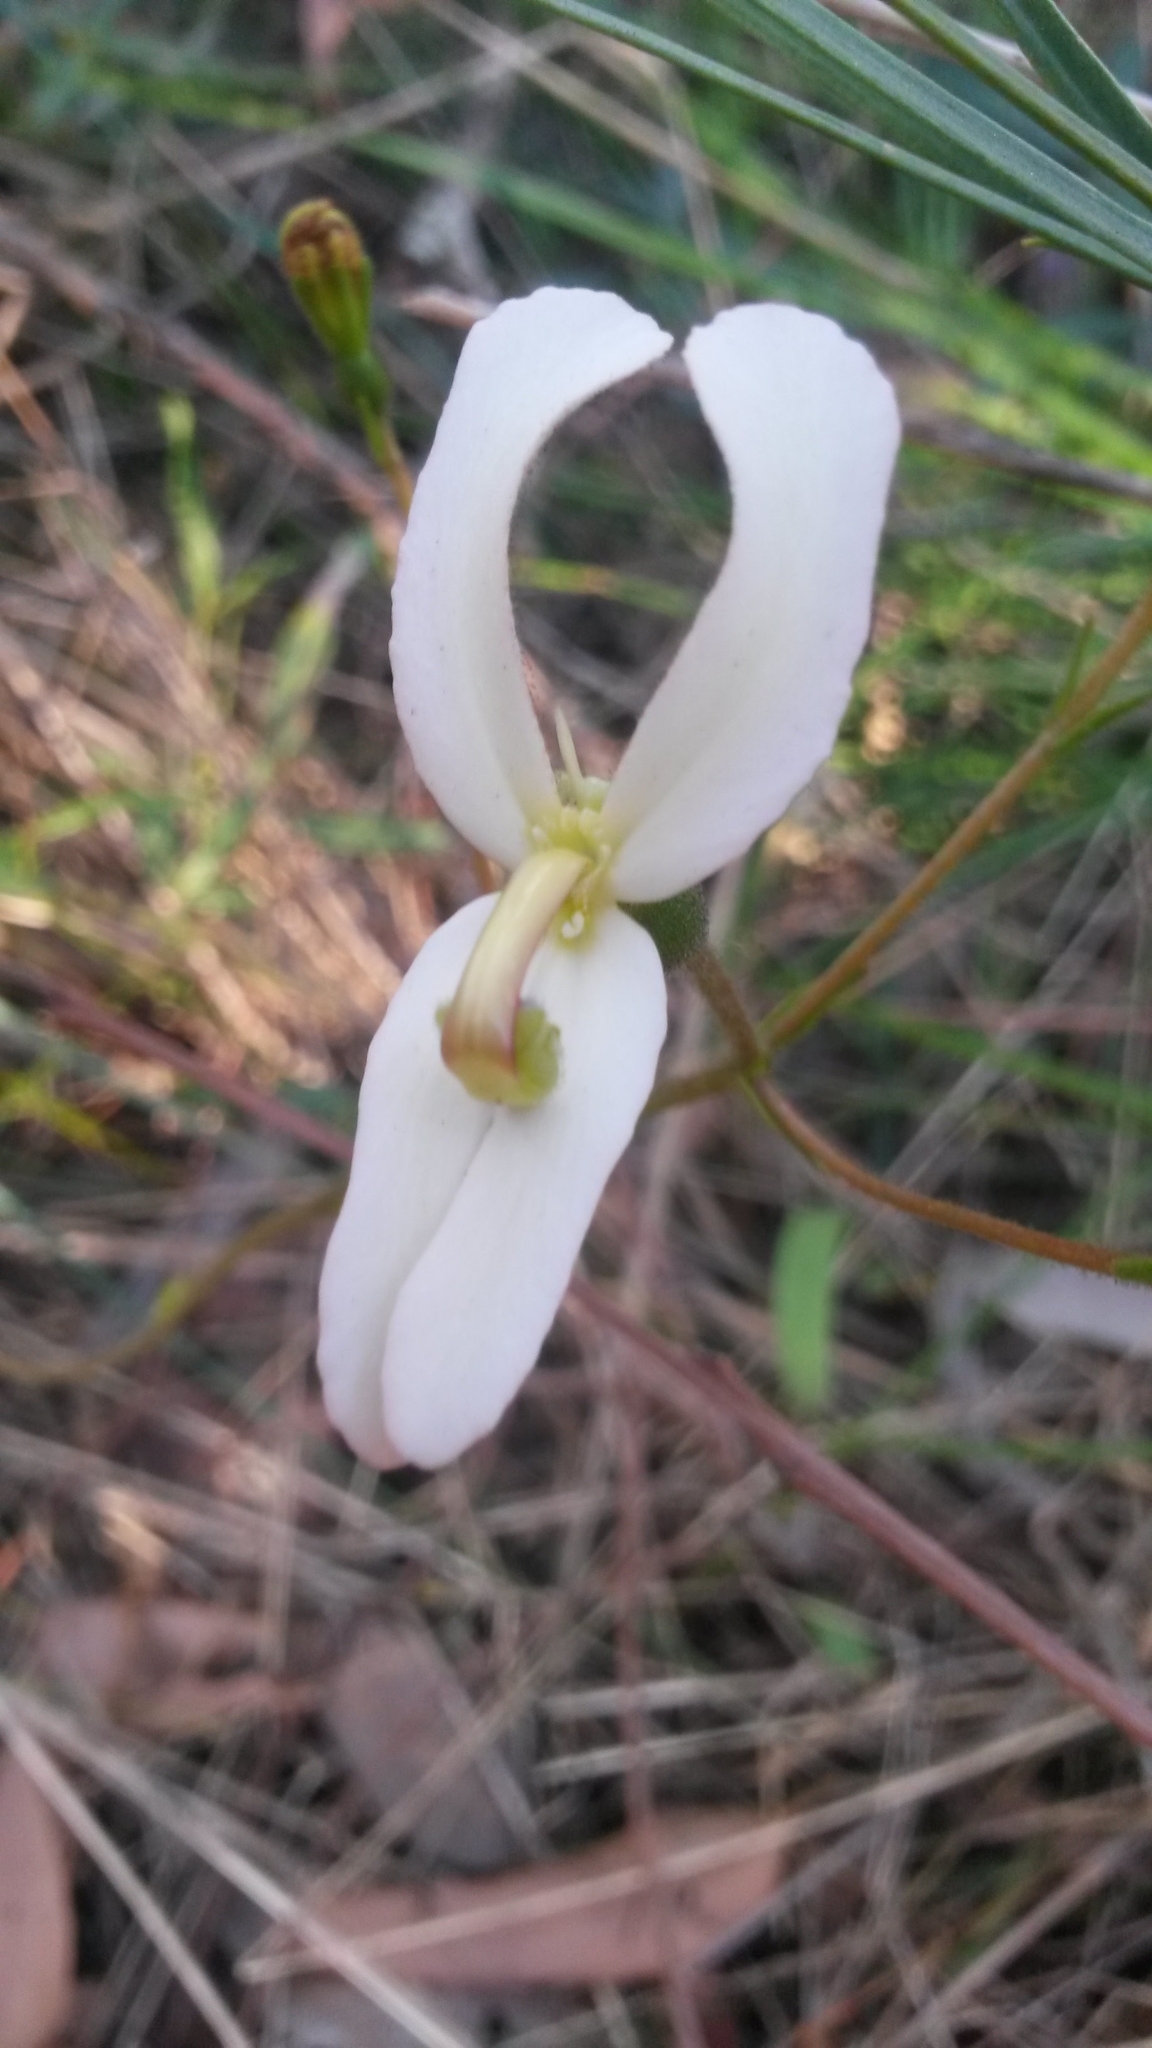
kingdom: Plantae
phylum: Tracheophyta
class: Magnoliopsida
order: Asterales
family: Stylidiaceae
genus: Stylidium
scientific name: Stylidium schoenoides
